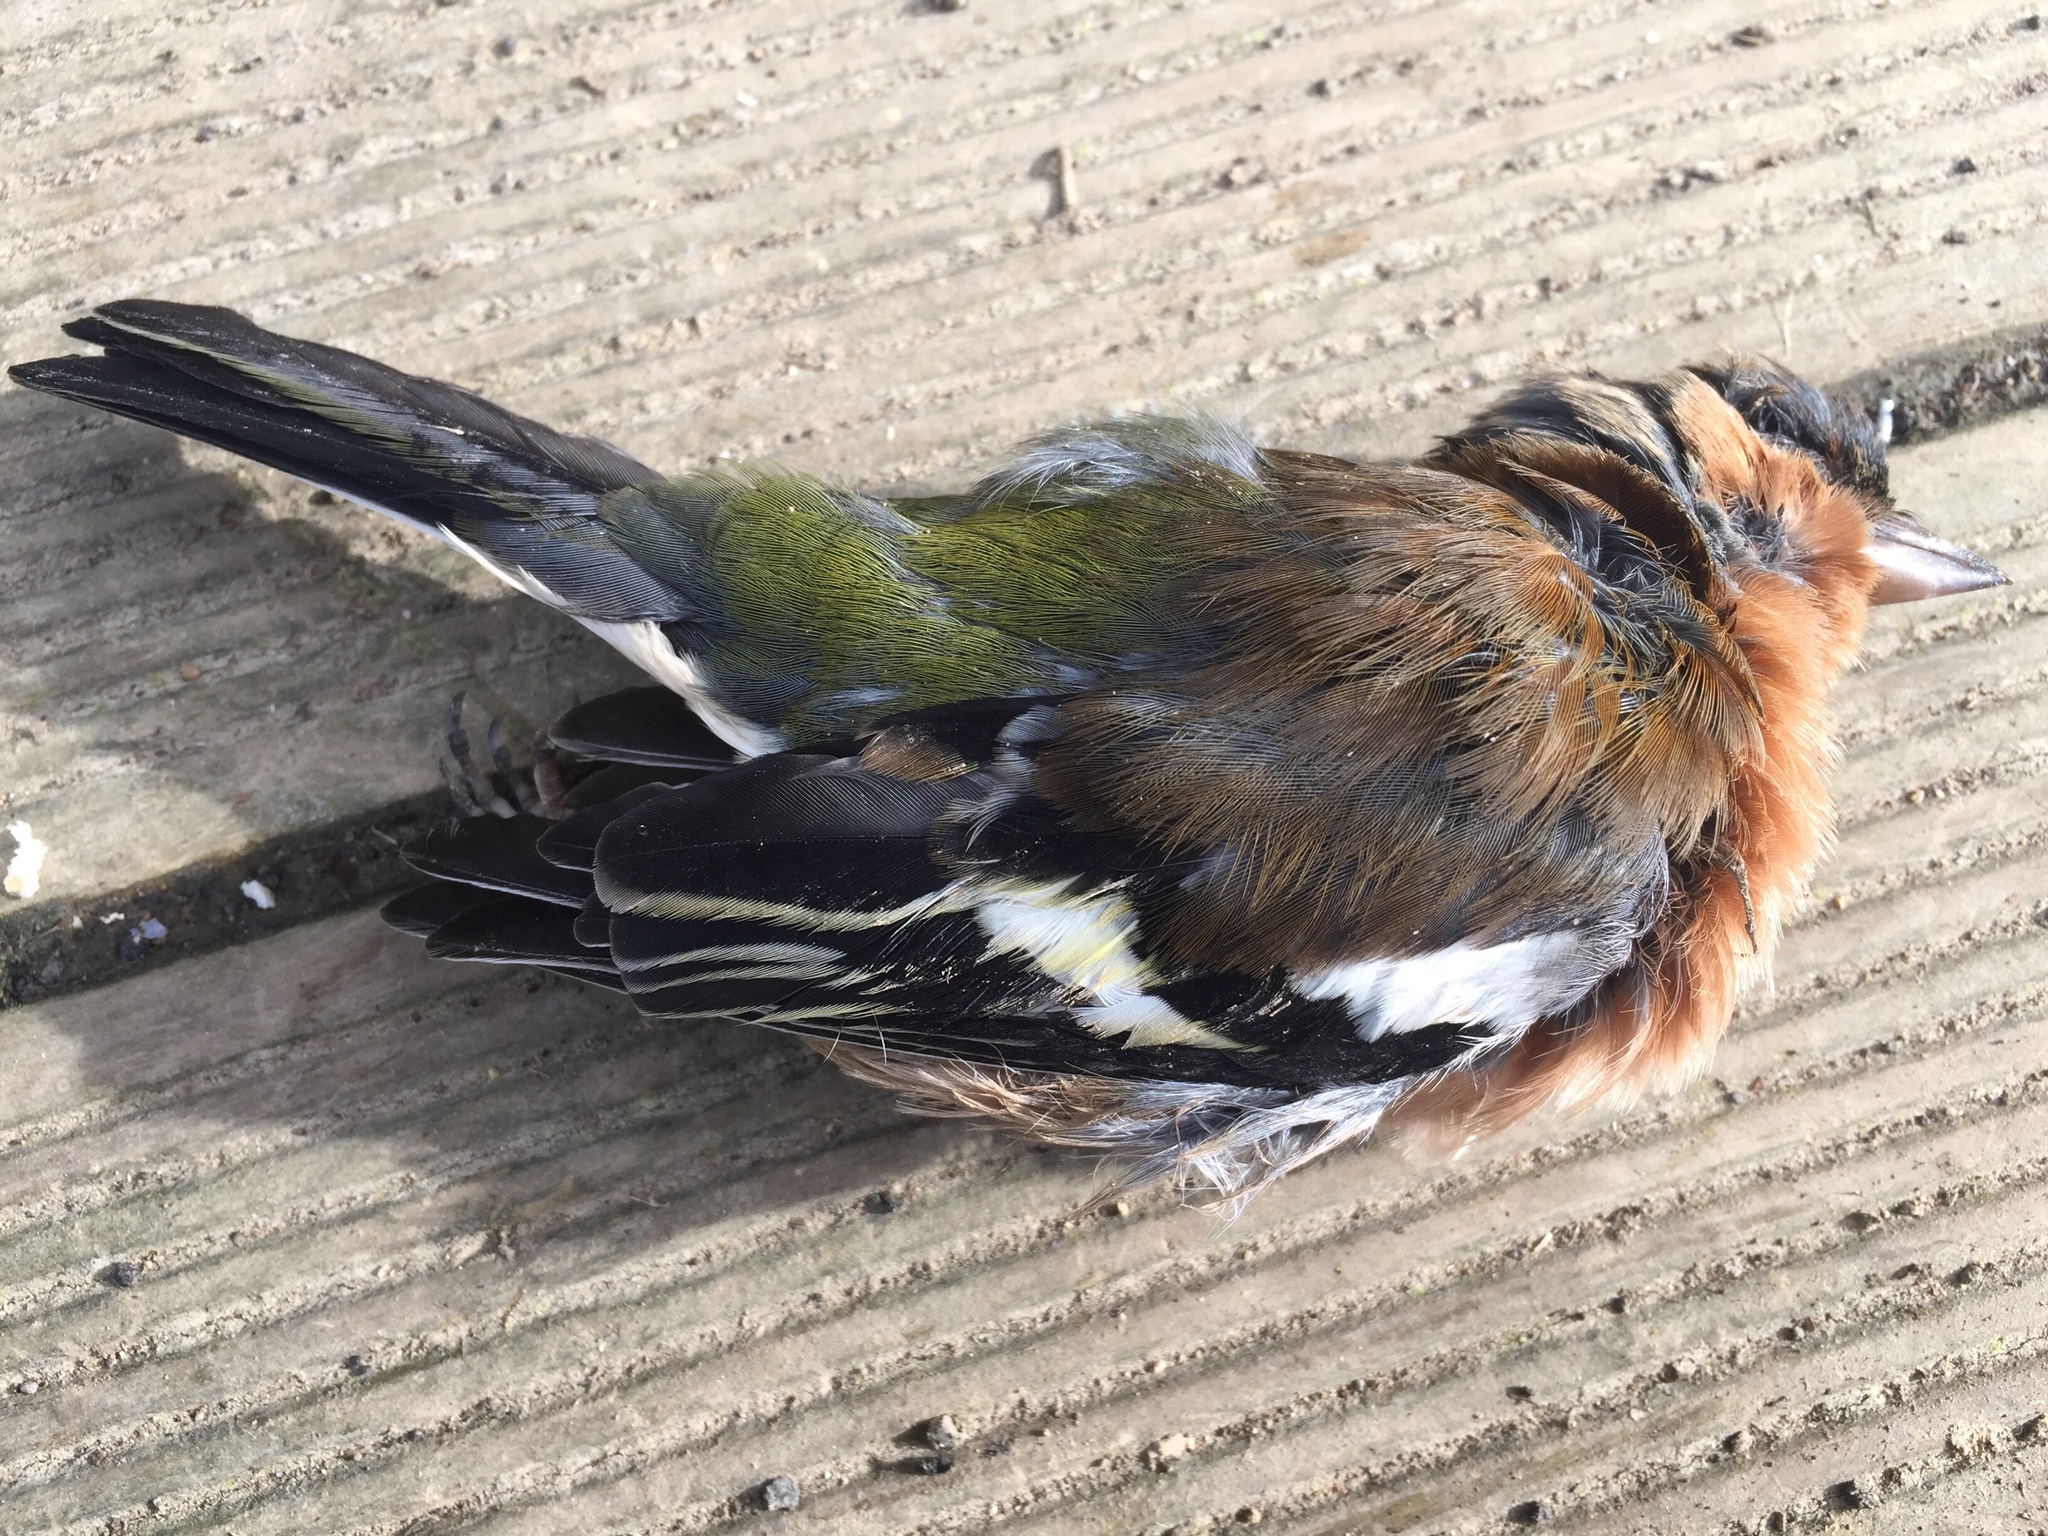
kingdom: Animalia
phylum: Chordata
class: Aves
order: Passeriformes
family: Fringillidae
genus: Fringilla
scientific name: Fringilla coelebs
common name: Common chaffinch
